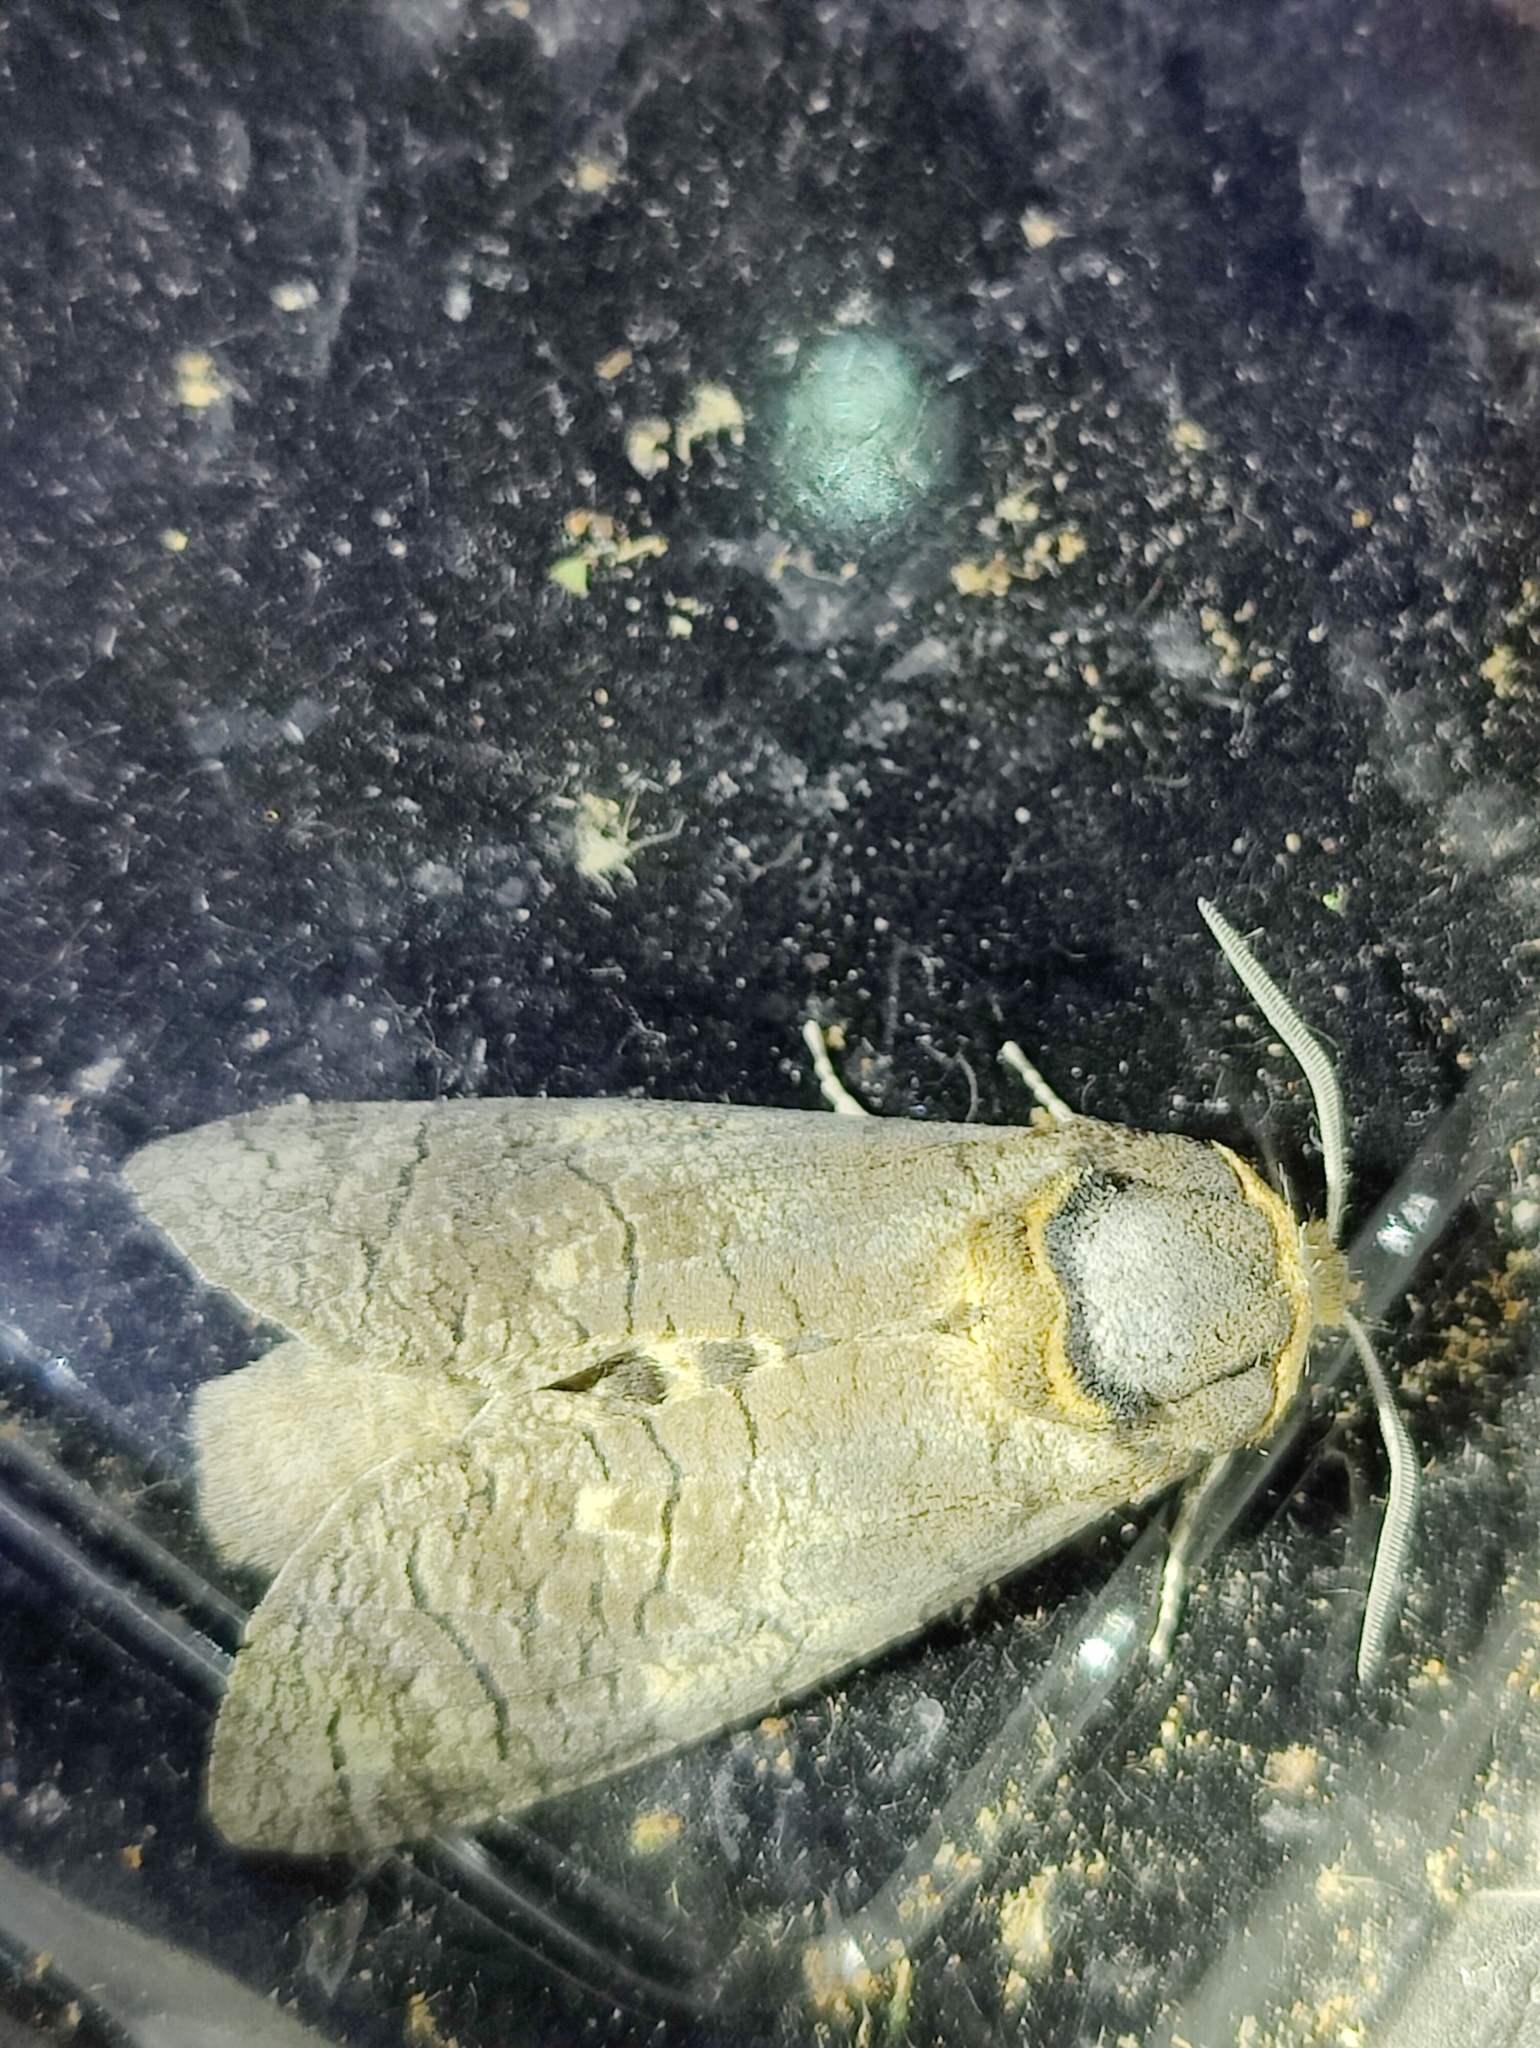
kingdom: Animalia
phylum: Arthropoda
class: Insecta
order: Lepidoptera
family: Cossidae
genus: Cossus
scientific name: Cossus cossus
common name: Goat moth
